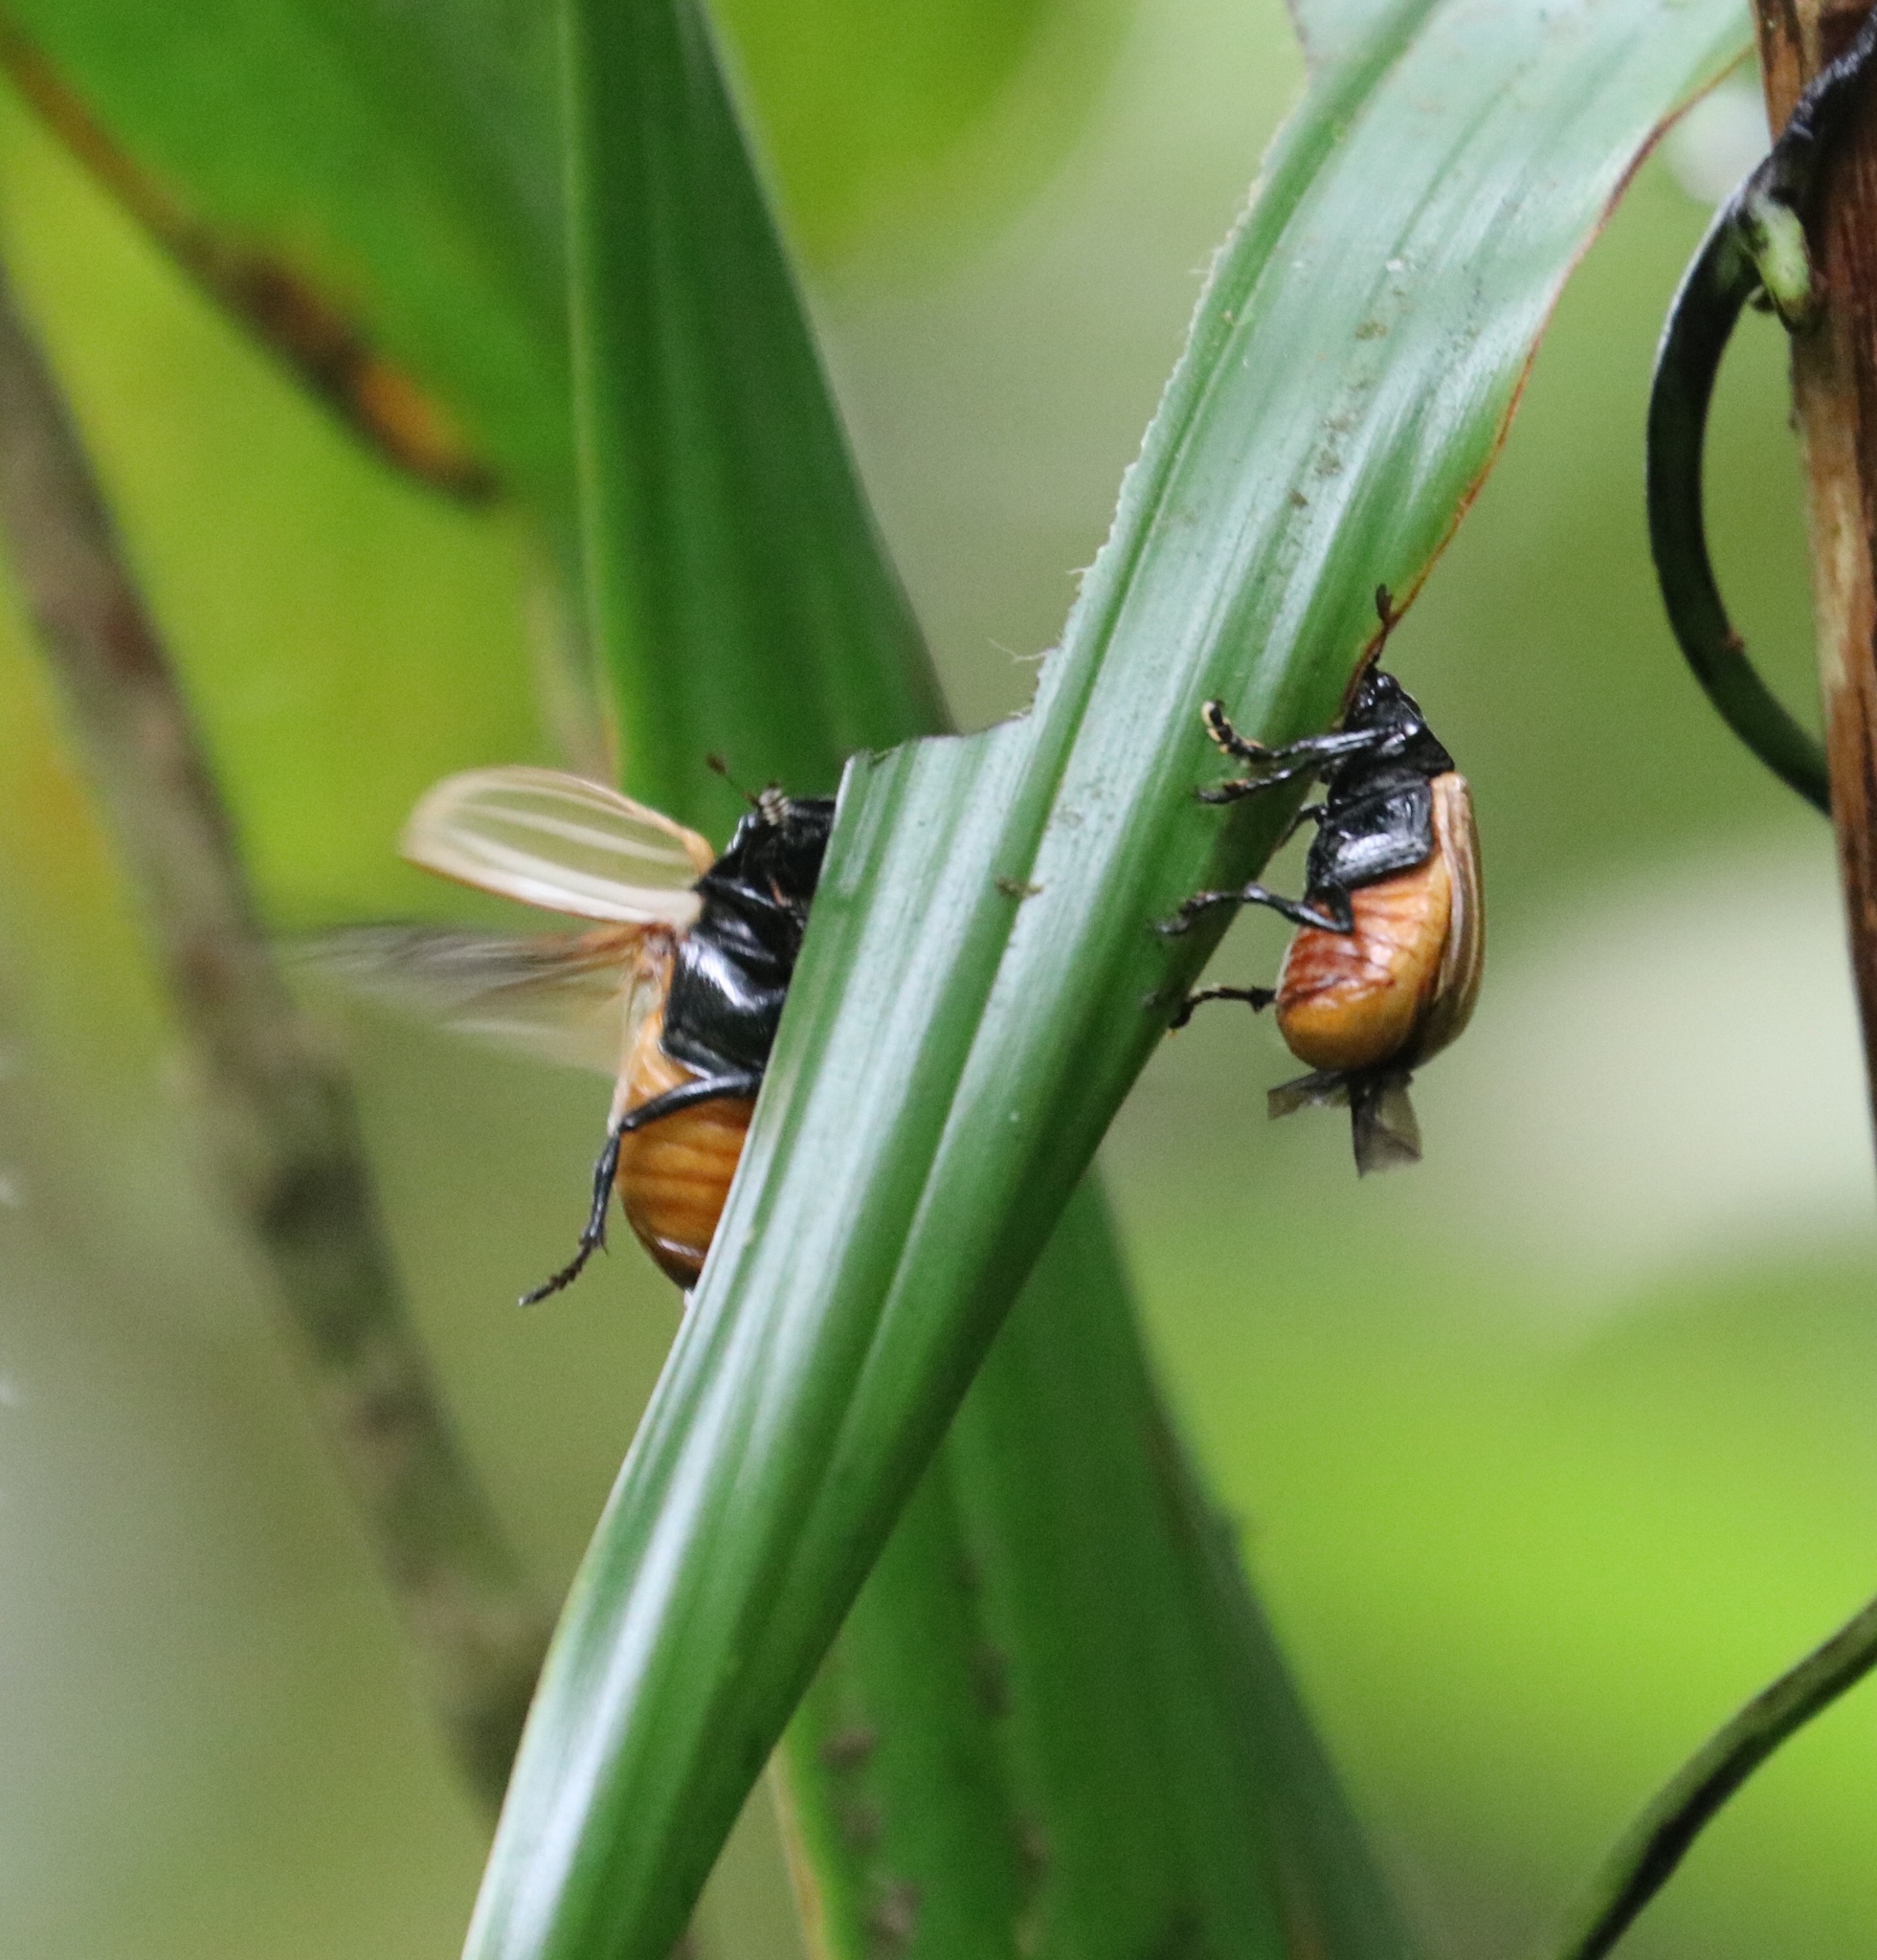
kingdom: Animalia
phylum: Arthropoda
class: Insecta
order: Coleoptera
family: Scarabaeidae
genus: Bolax
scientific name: Bolax magna
